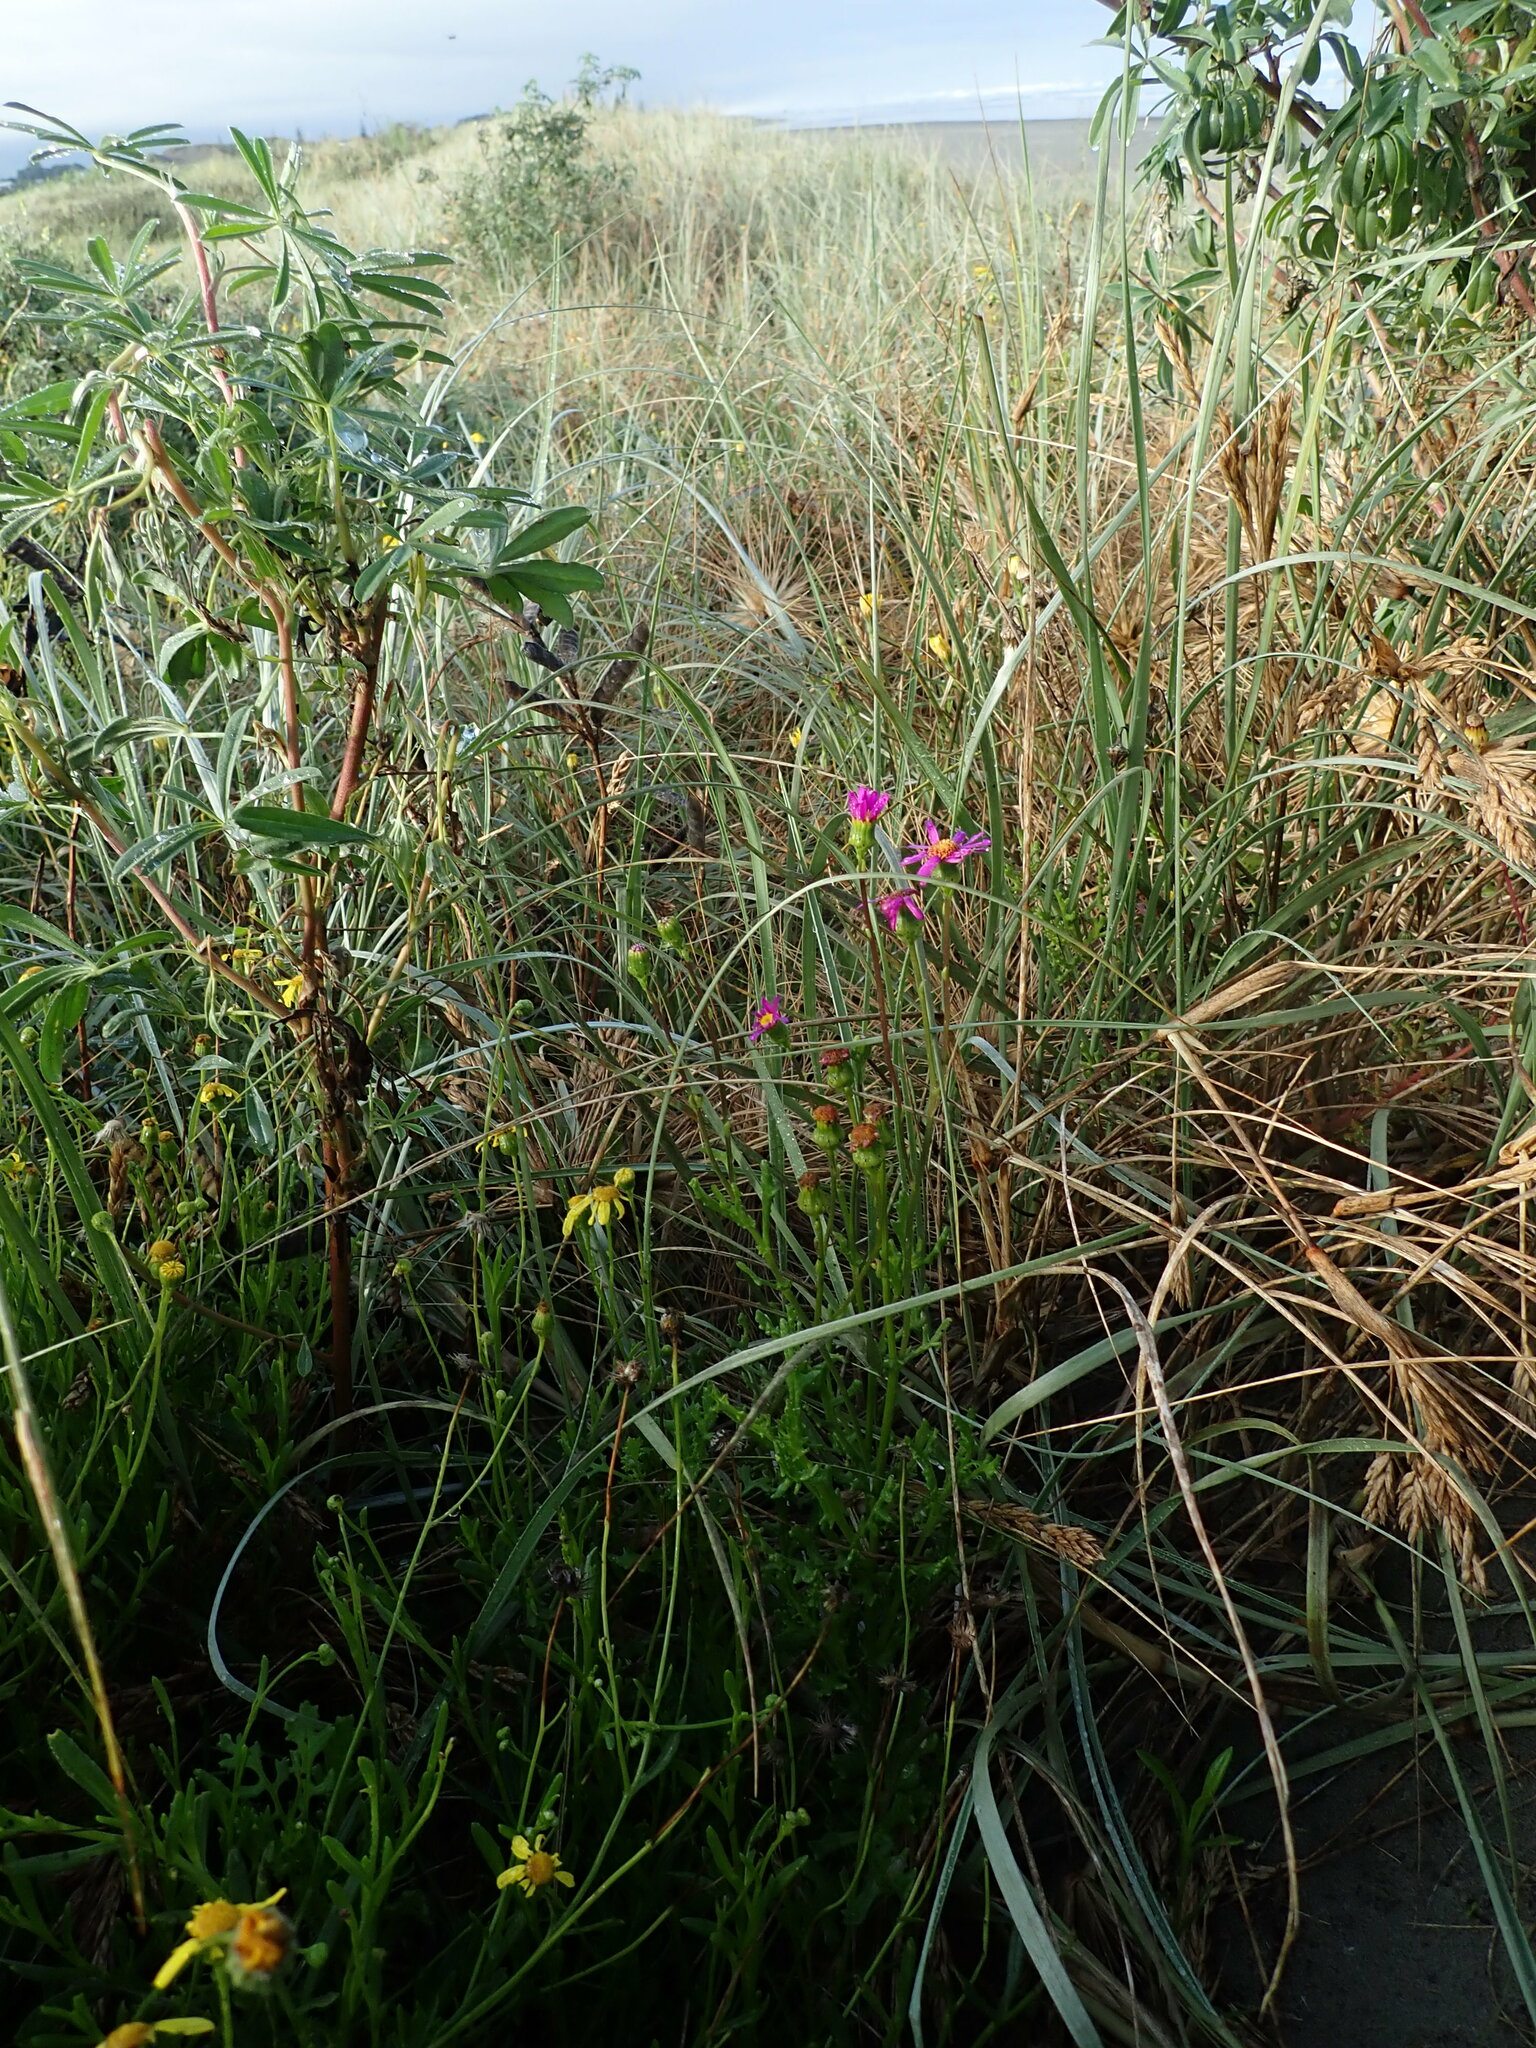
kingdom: Plantae
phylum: Tracheophyta
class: Magnoliopsida
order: Asterales
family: Asteraceae
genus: Senecio
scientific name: Senecio elegans
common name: Purple groundsel
